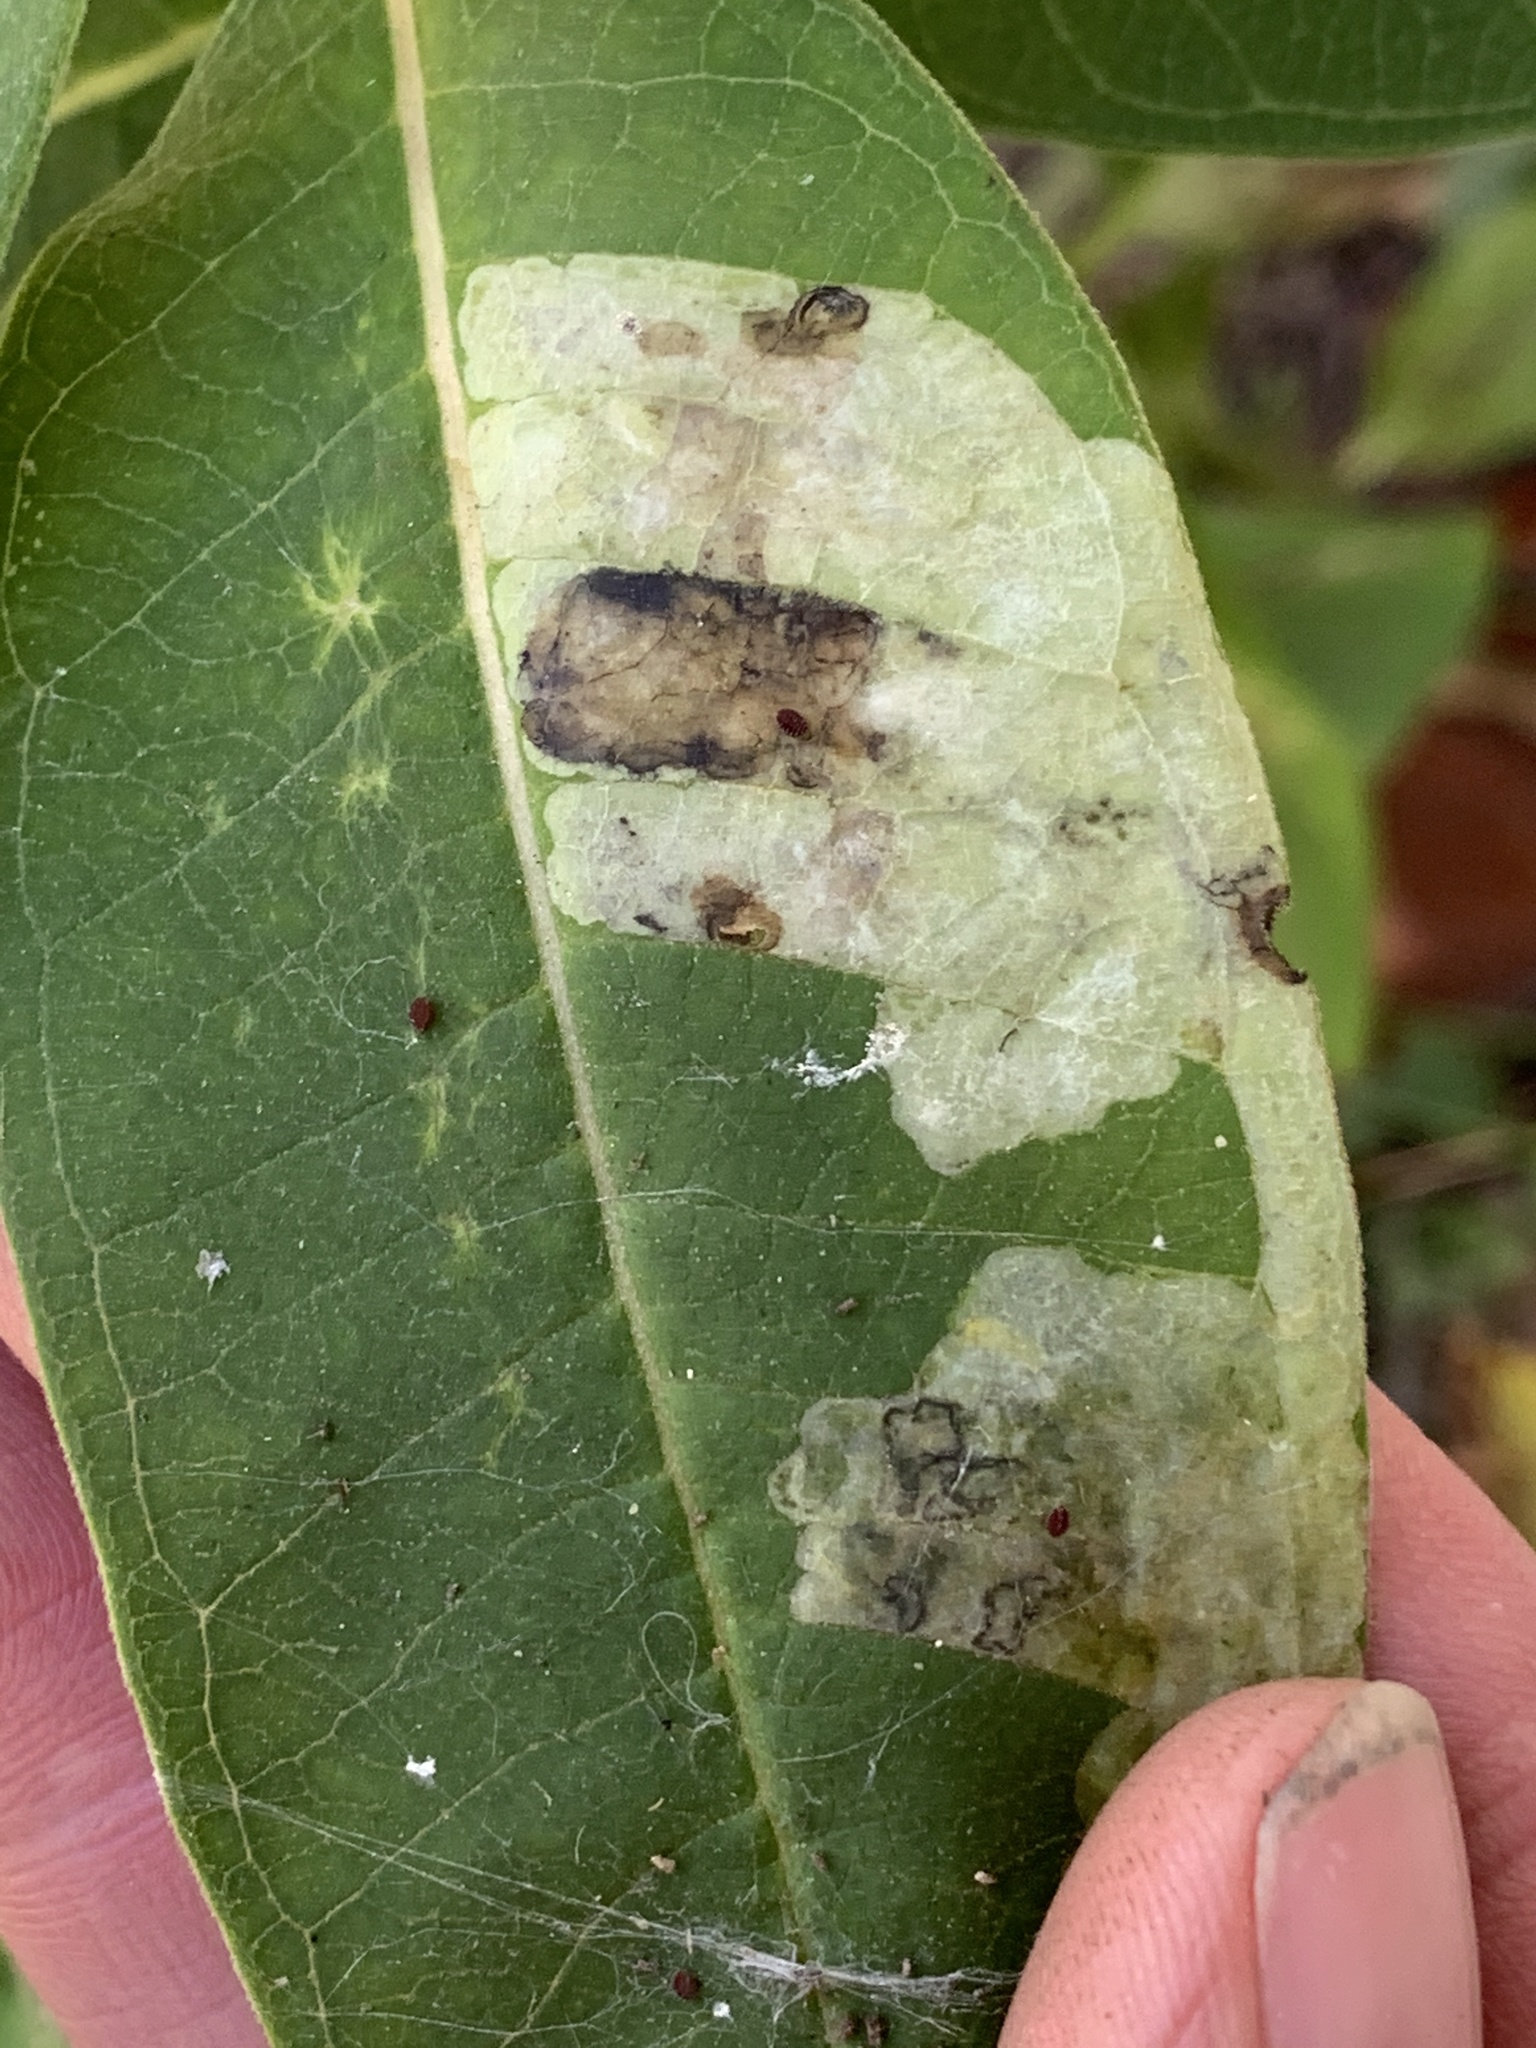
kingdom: Animalia
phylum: Arthropoda
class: Insecta
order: Diptera
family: Agromyzidae
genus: Liriomyza
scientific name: Liriomyza asclepiadis
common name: Milkweed leaf-miner fly
